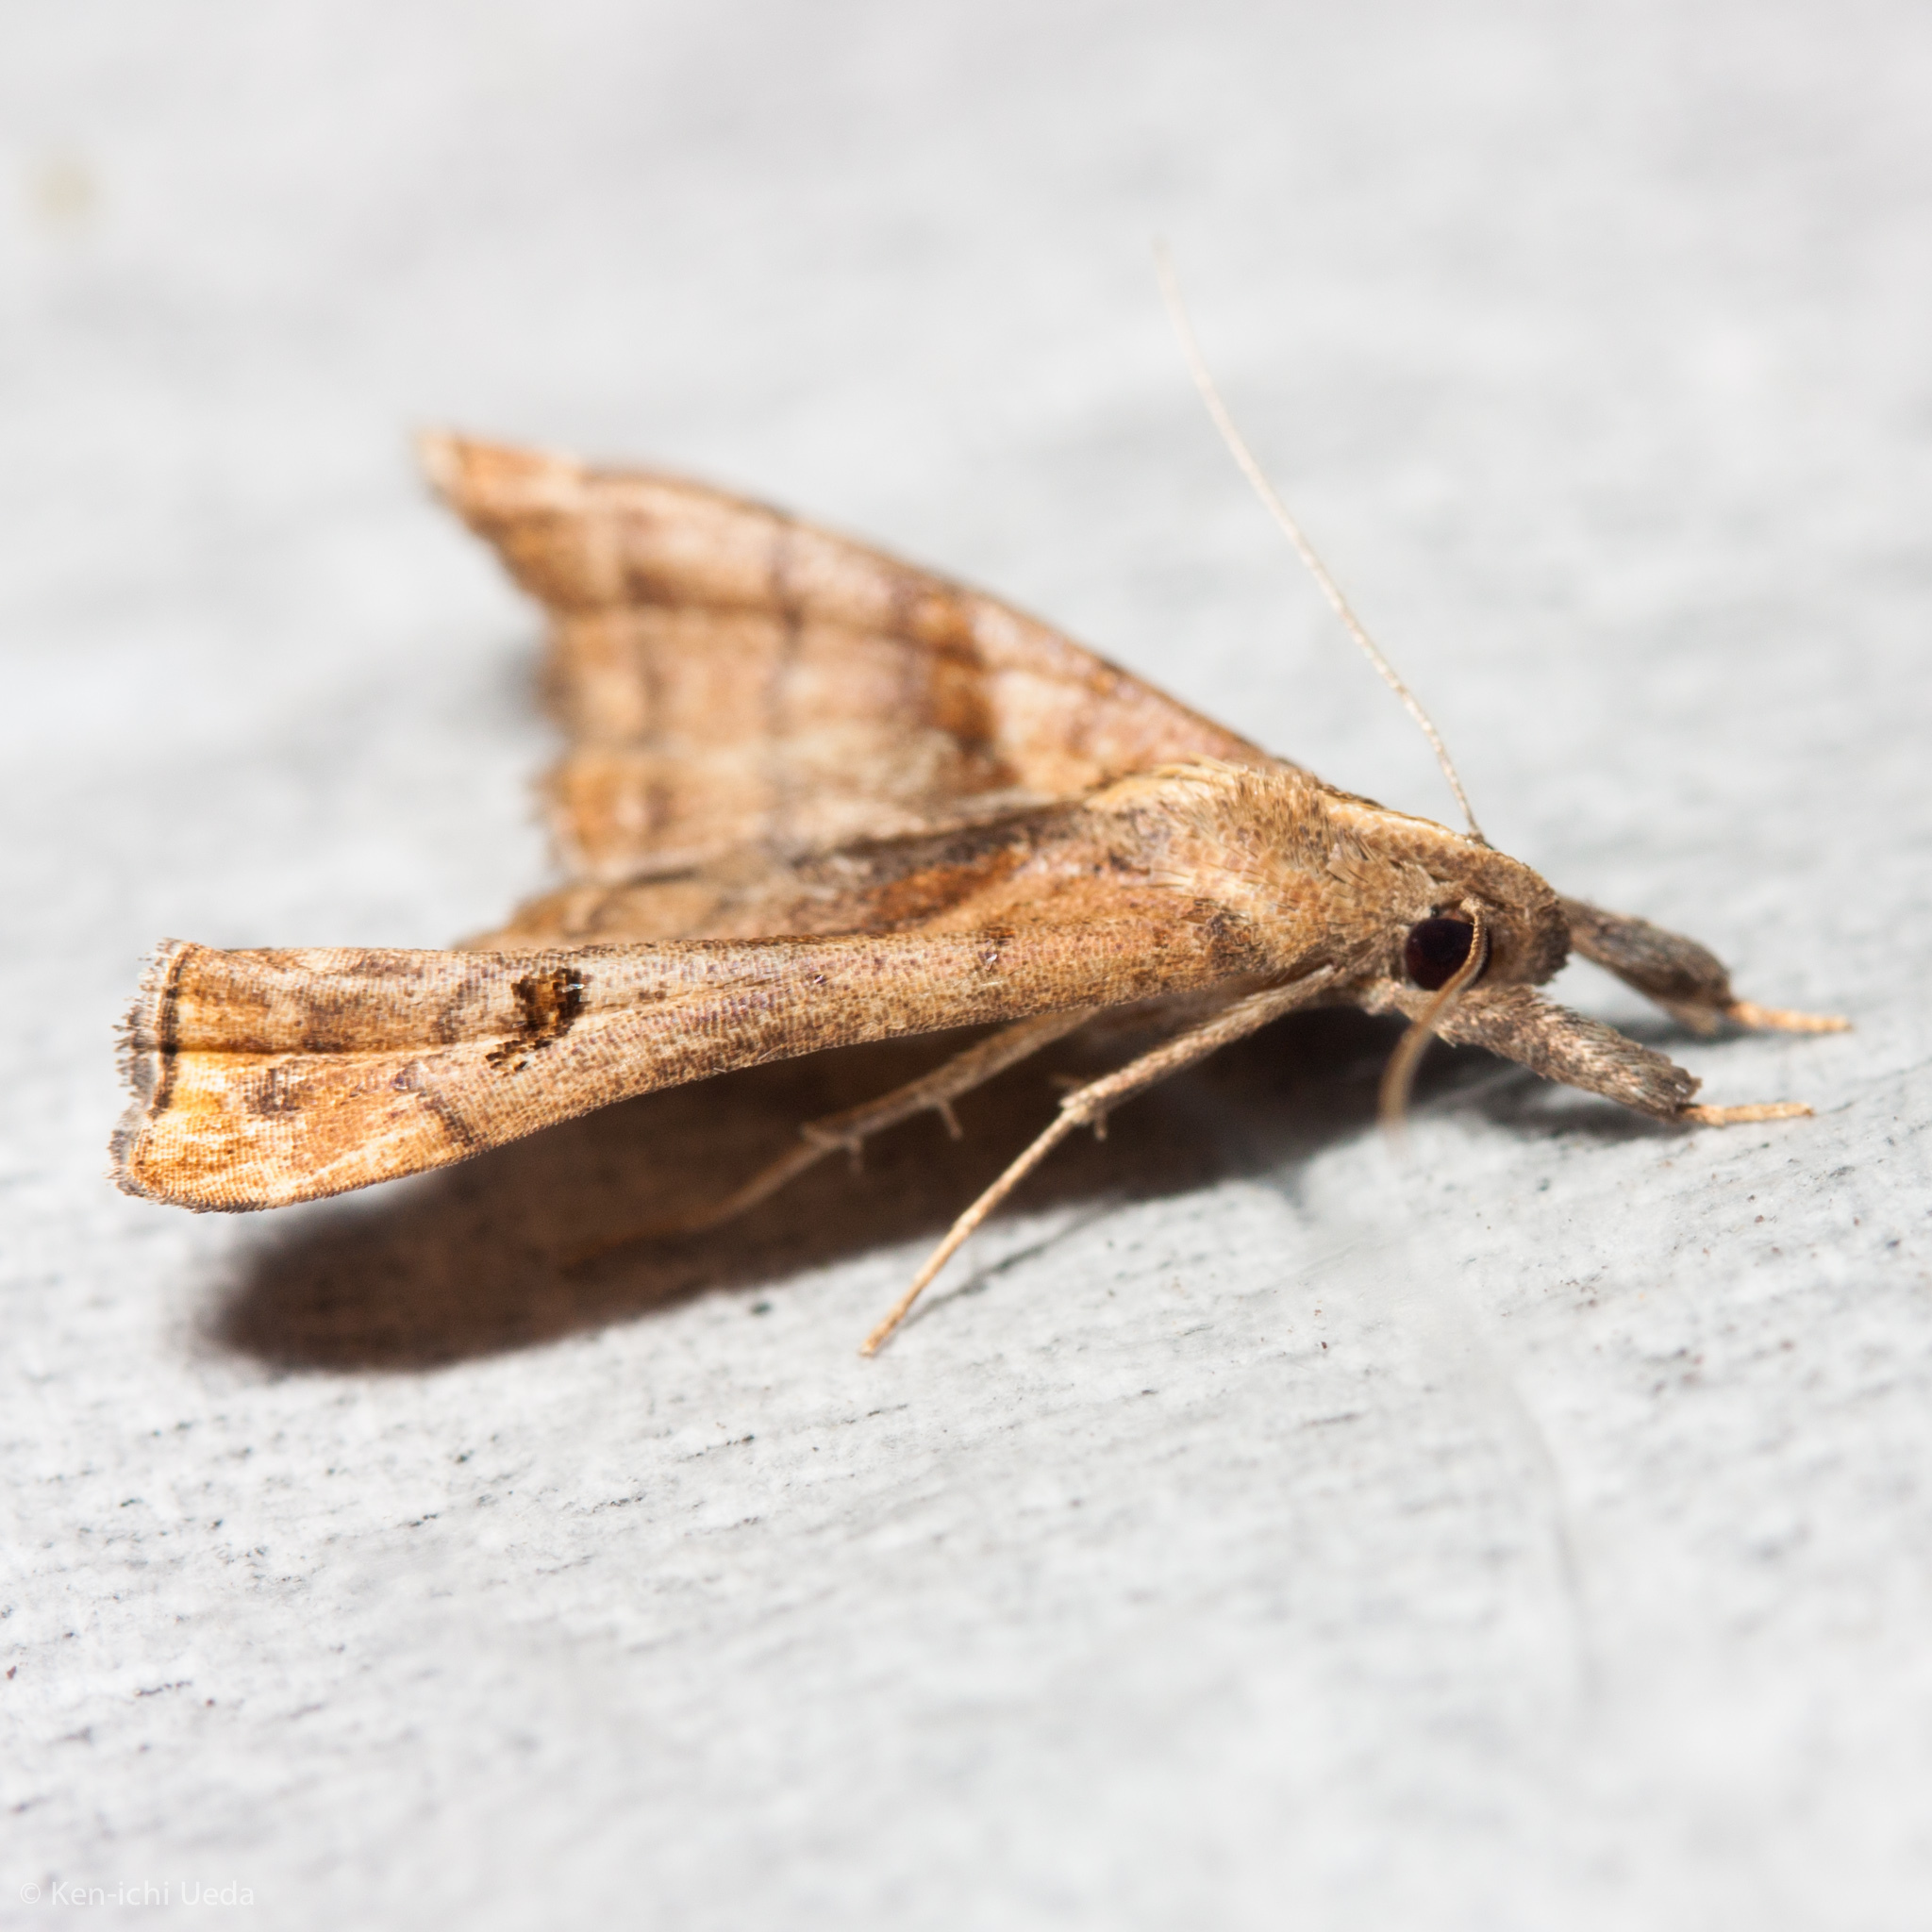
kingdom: Animalia
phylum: Arthropoda
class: Insecta
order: Lepidoptera
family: Erebidae
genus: Palthis
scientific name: Palthis angulalis
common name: Dark-spotted palthis moth
